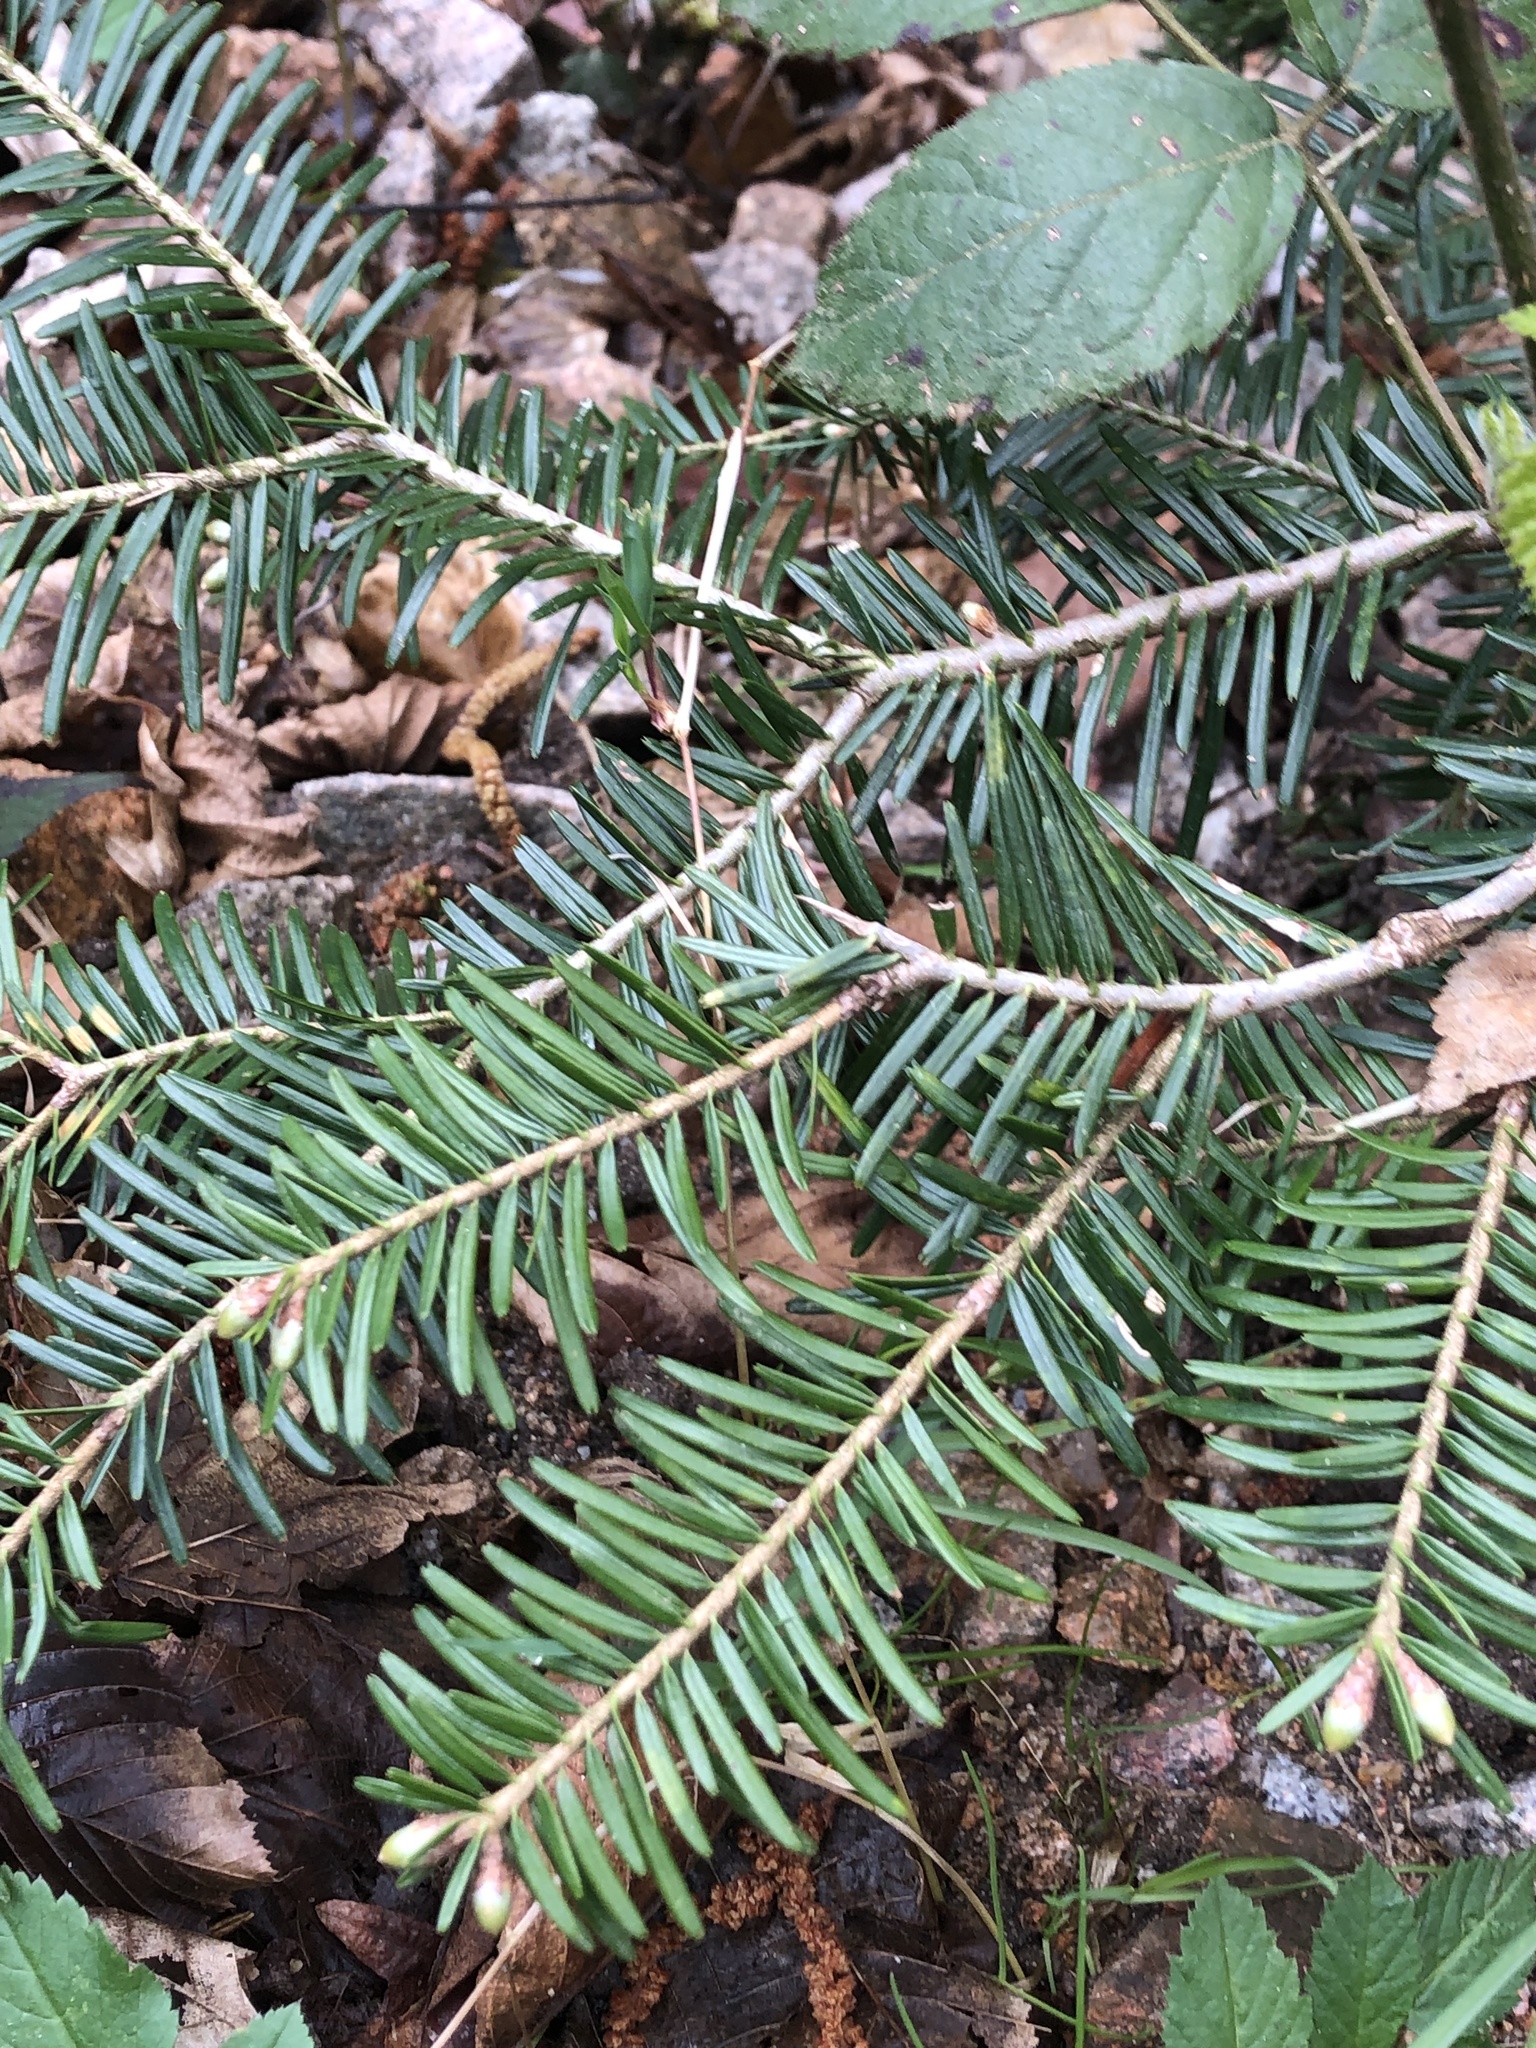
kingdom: Plantae
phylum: Tracheophyta
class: Pinopsida
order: Pinales
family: Pinaceae
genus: Abies
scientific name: Abies alba
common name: Silver fir
